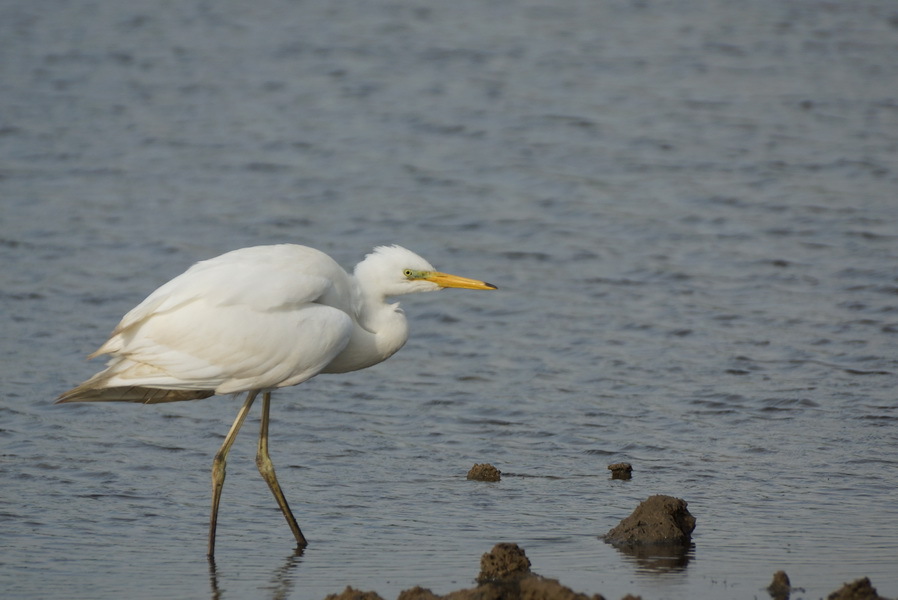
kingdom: Animalia
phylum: Chordata
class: Aves
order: Pelecaniformes
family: Ardeidae
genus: Ardea
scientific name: Ardea alba
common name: Great egret
